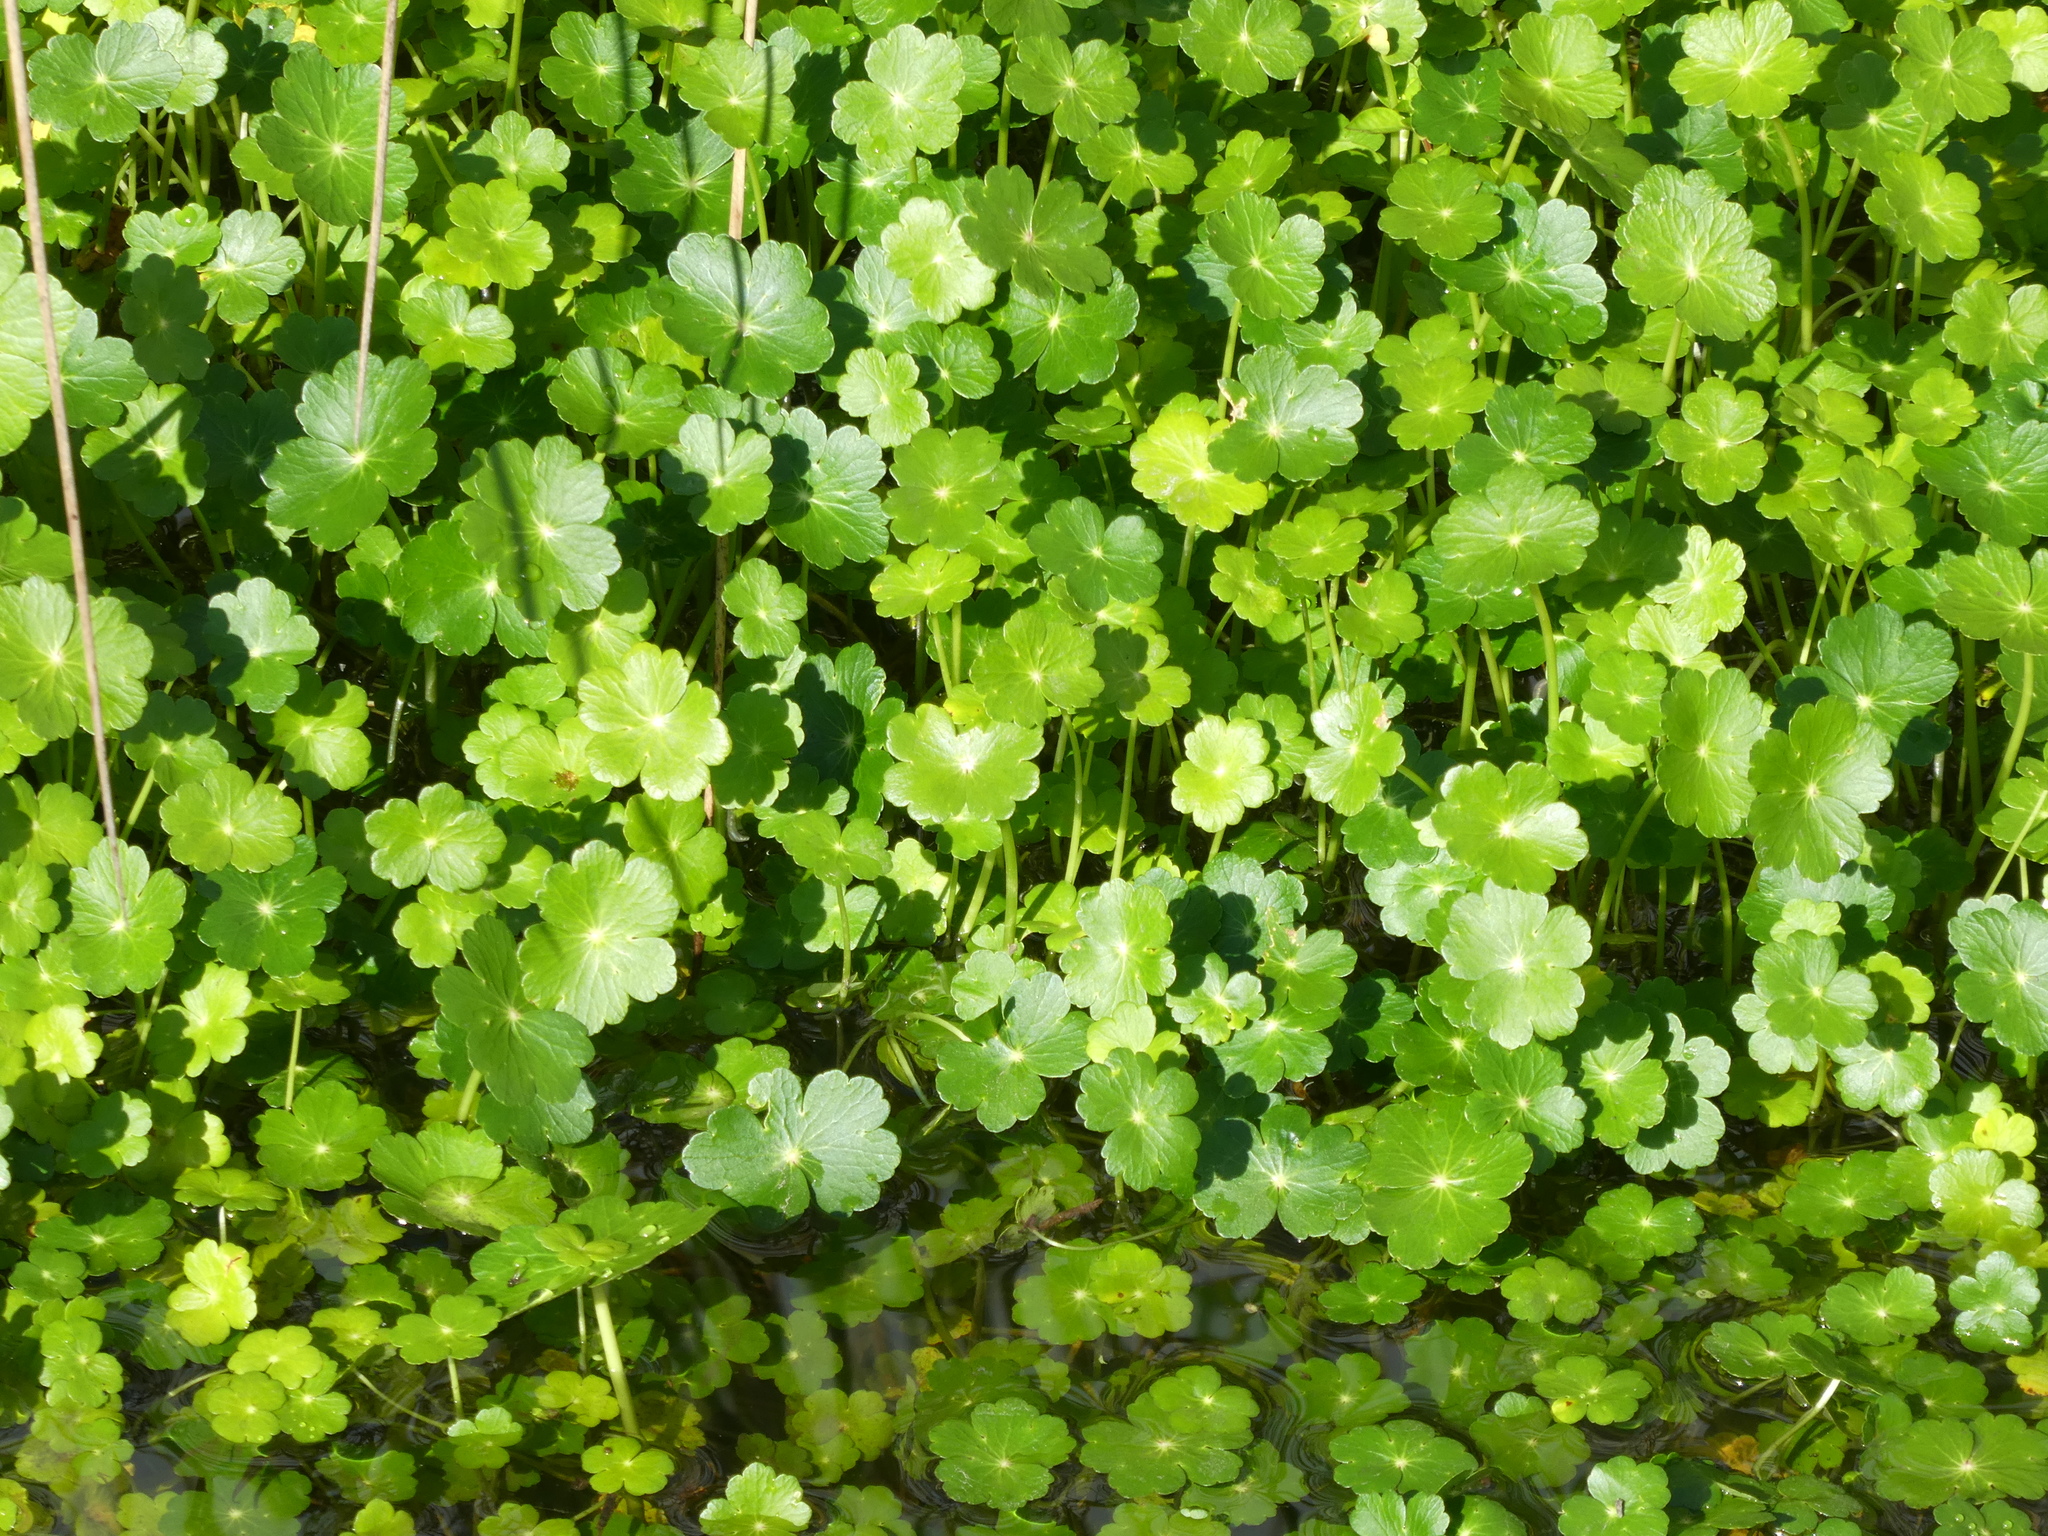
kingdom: Plantae
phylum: Tracheophyta
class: Magnoliopsida
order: Apiales
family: Araliaceae
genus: Hydrocotyle
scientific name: Hydrocotyle ranunculoides
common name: Floating pennywort
